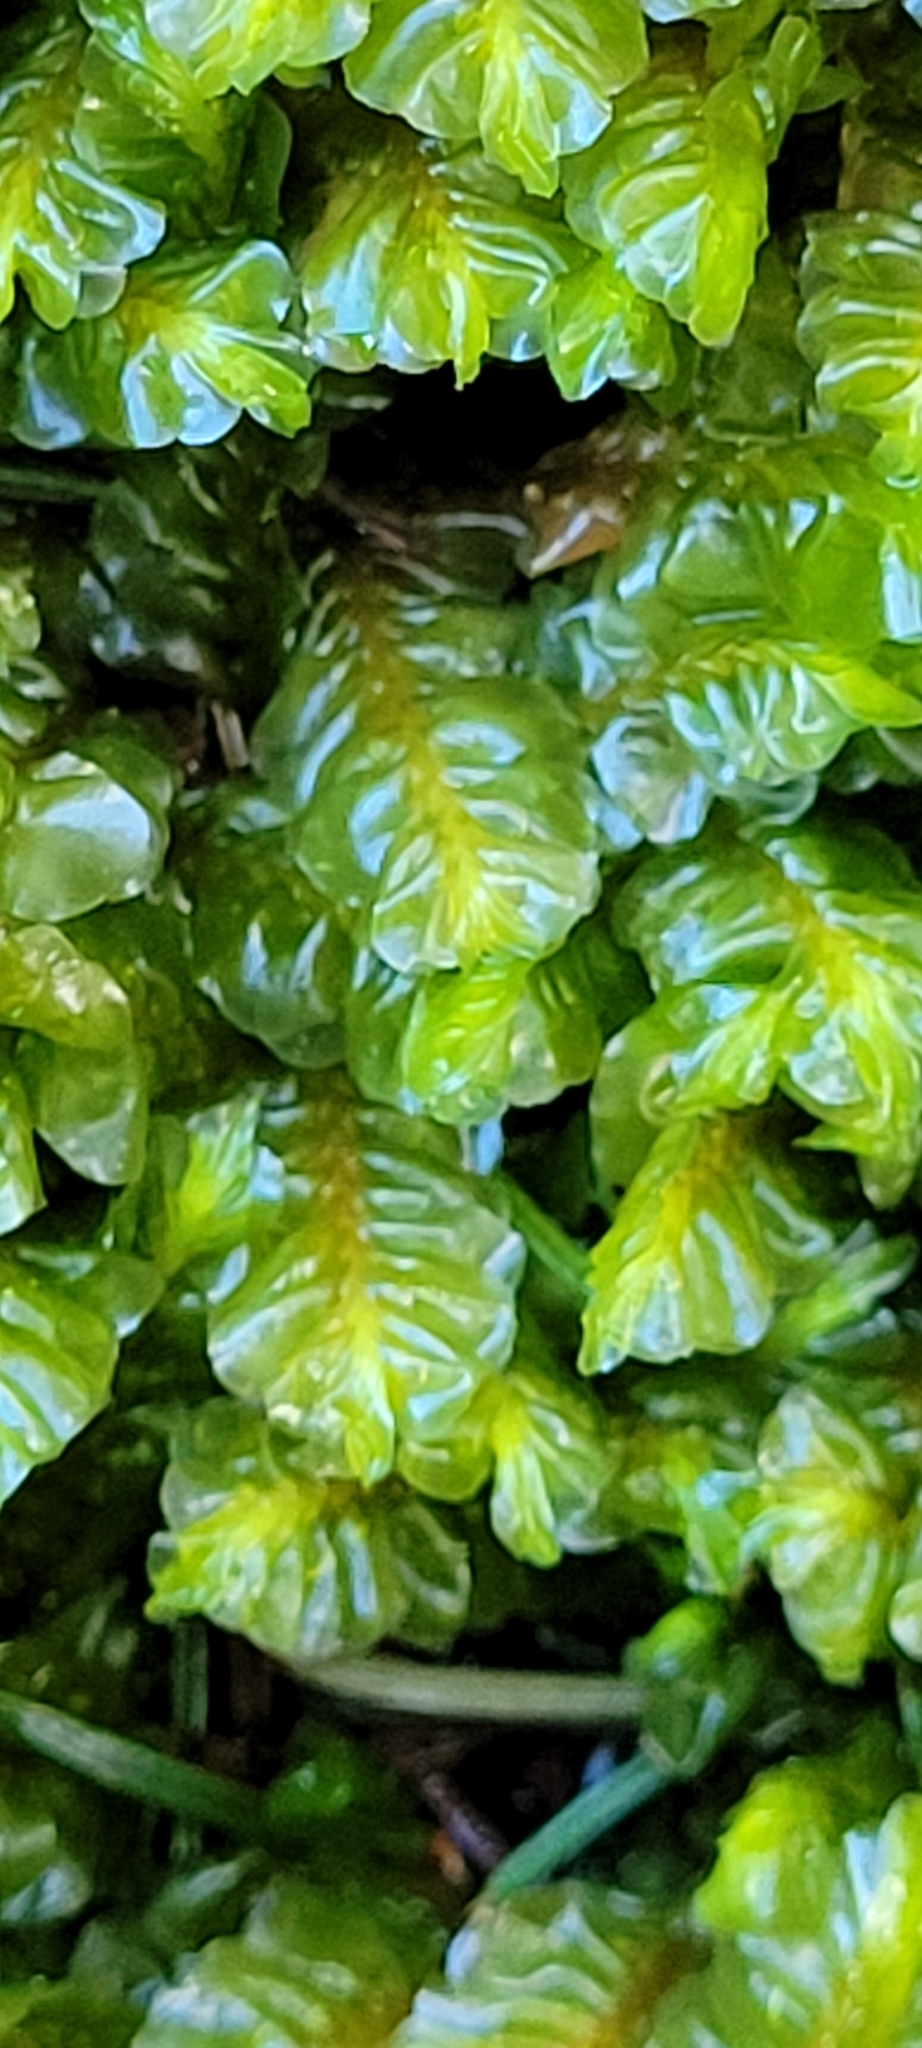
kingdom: Plantae
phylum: Marchantiophyta
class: Jungermanniopsida
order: Jungermanniales
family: Plagiochilaceae
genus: Plagiochila
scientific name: Plagiochila asplenioides
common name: Greater featherwort
